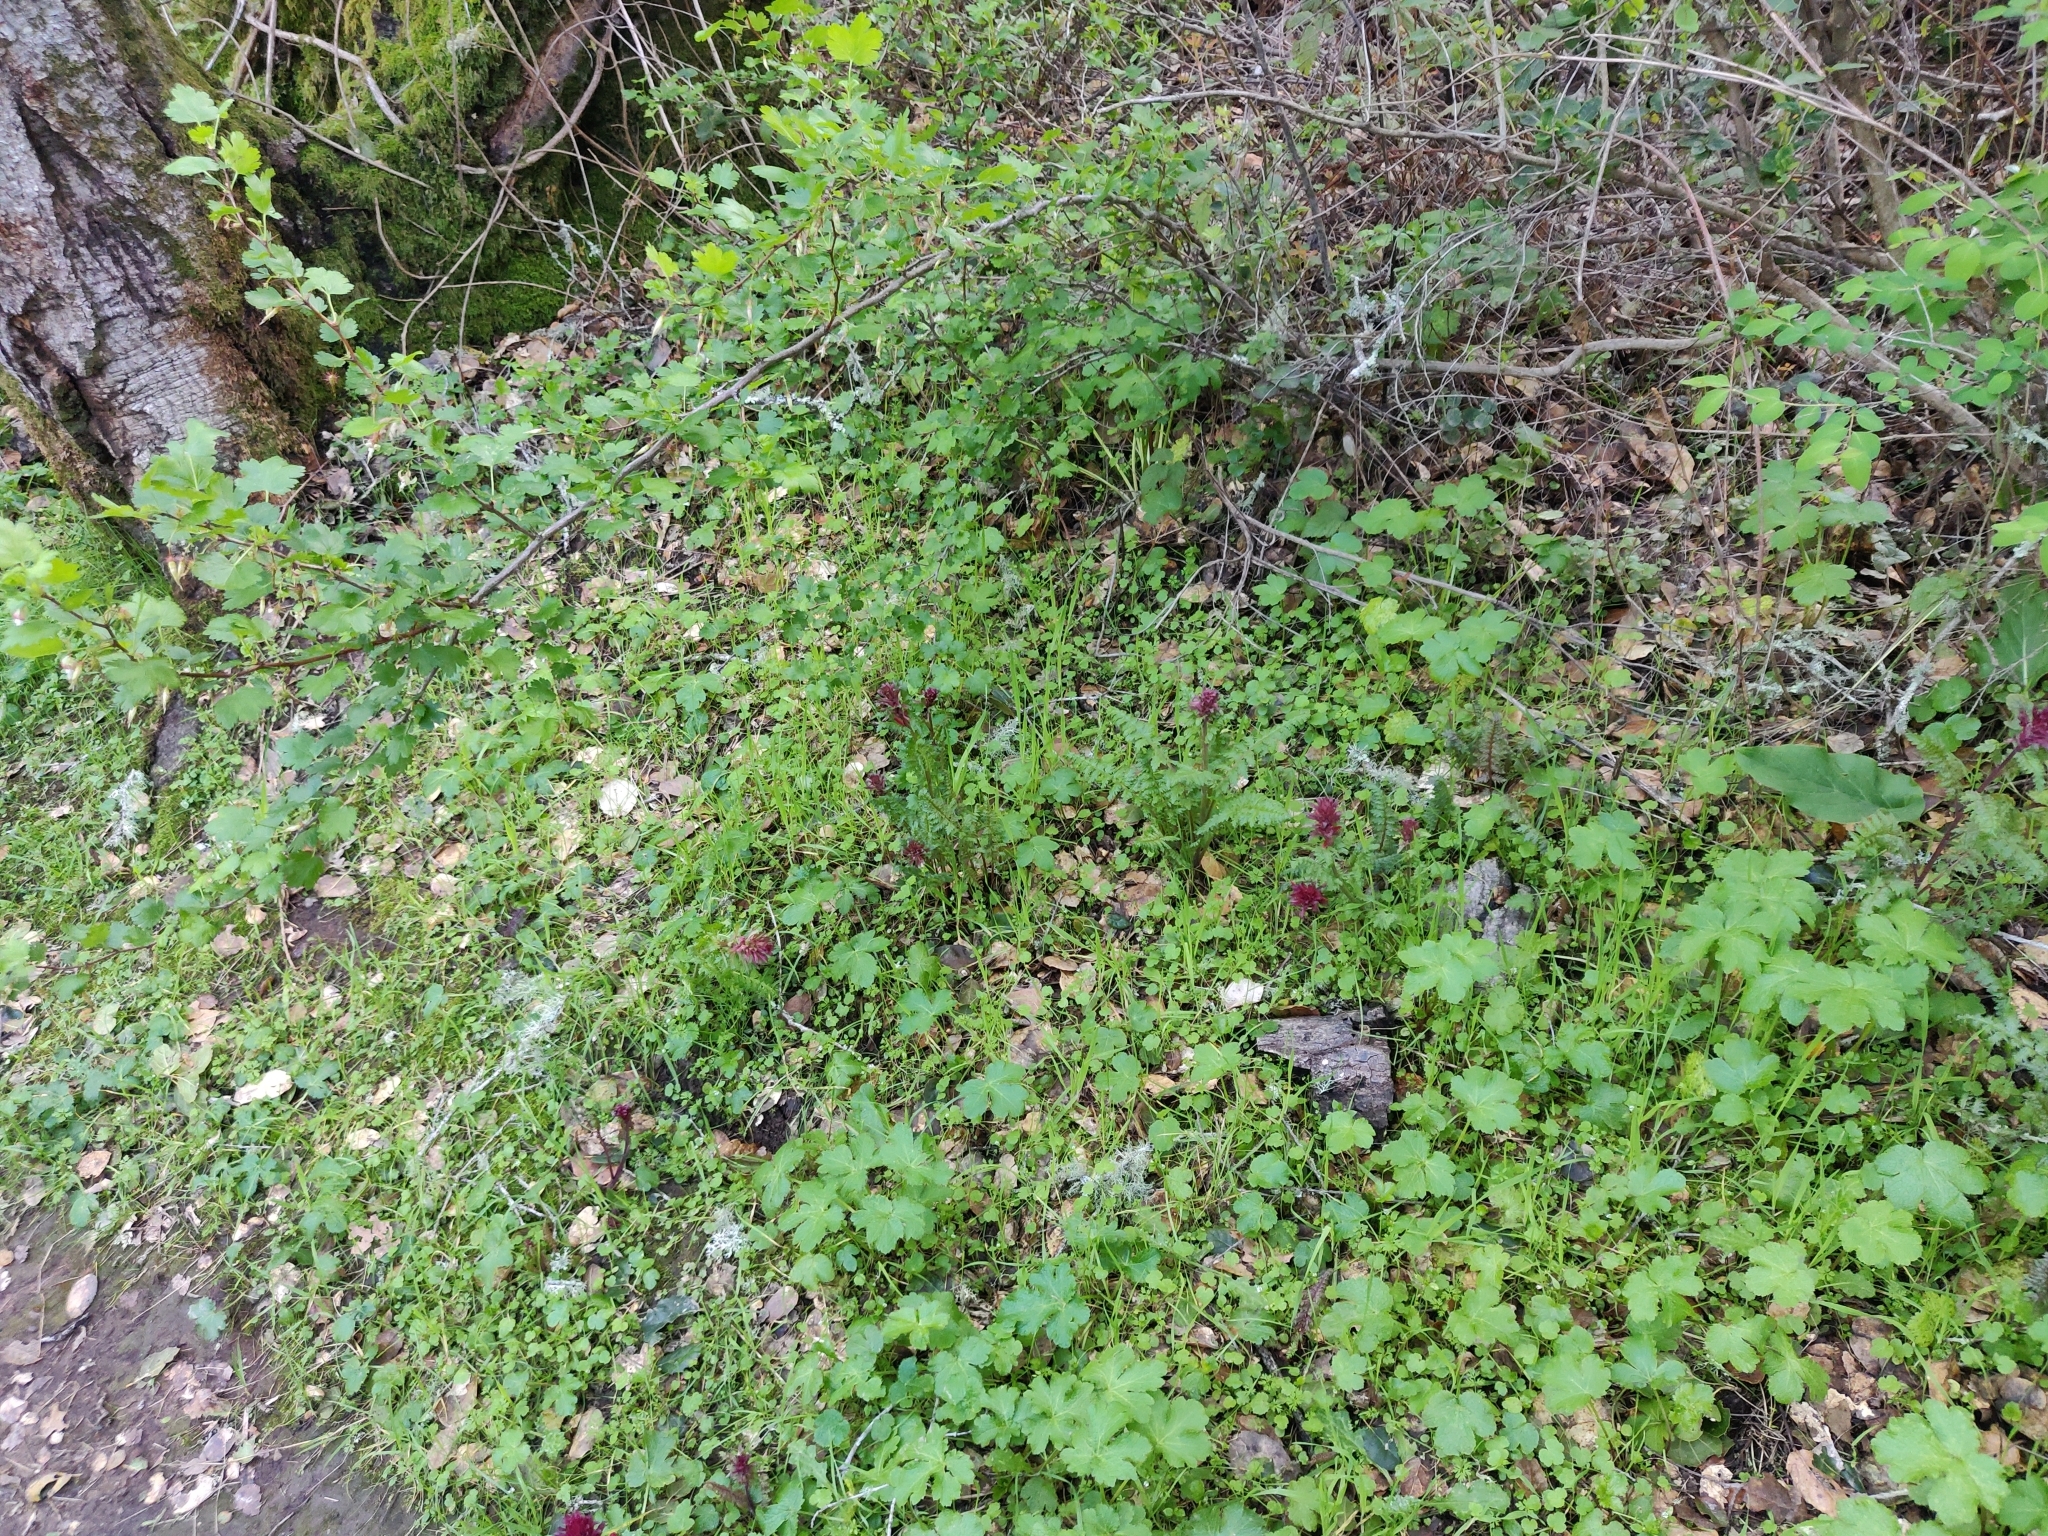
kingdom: Plantae
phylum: Tracheophyta
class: Magnoliopsida
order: Lamiales
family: Orobanchaceae
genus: Pedicularis
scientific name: Pedicularis densiflora
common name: Indian warrior
